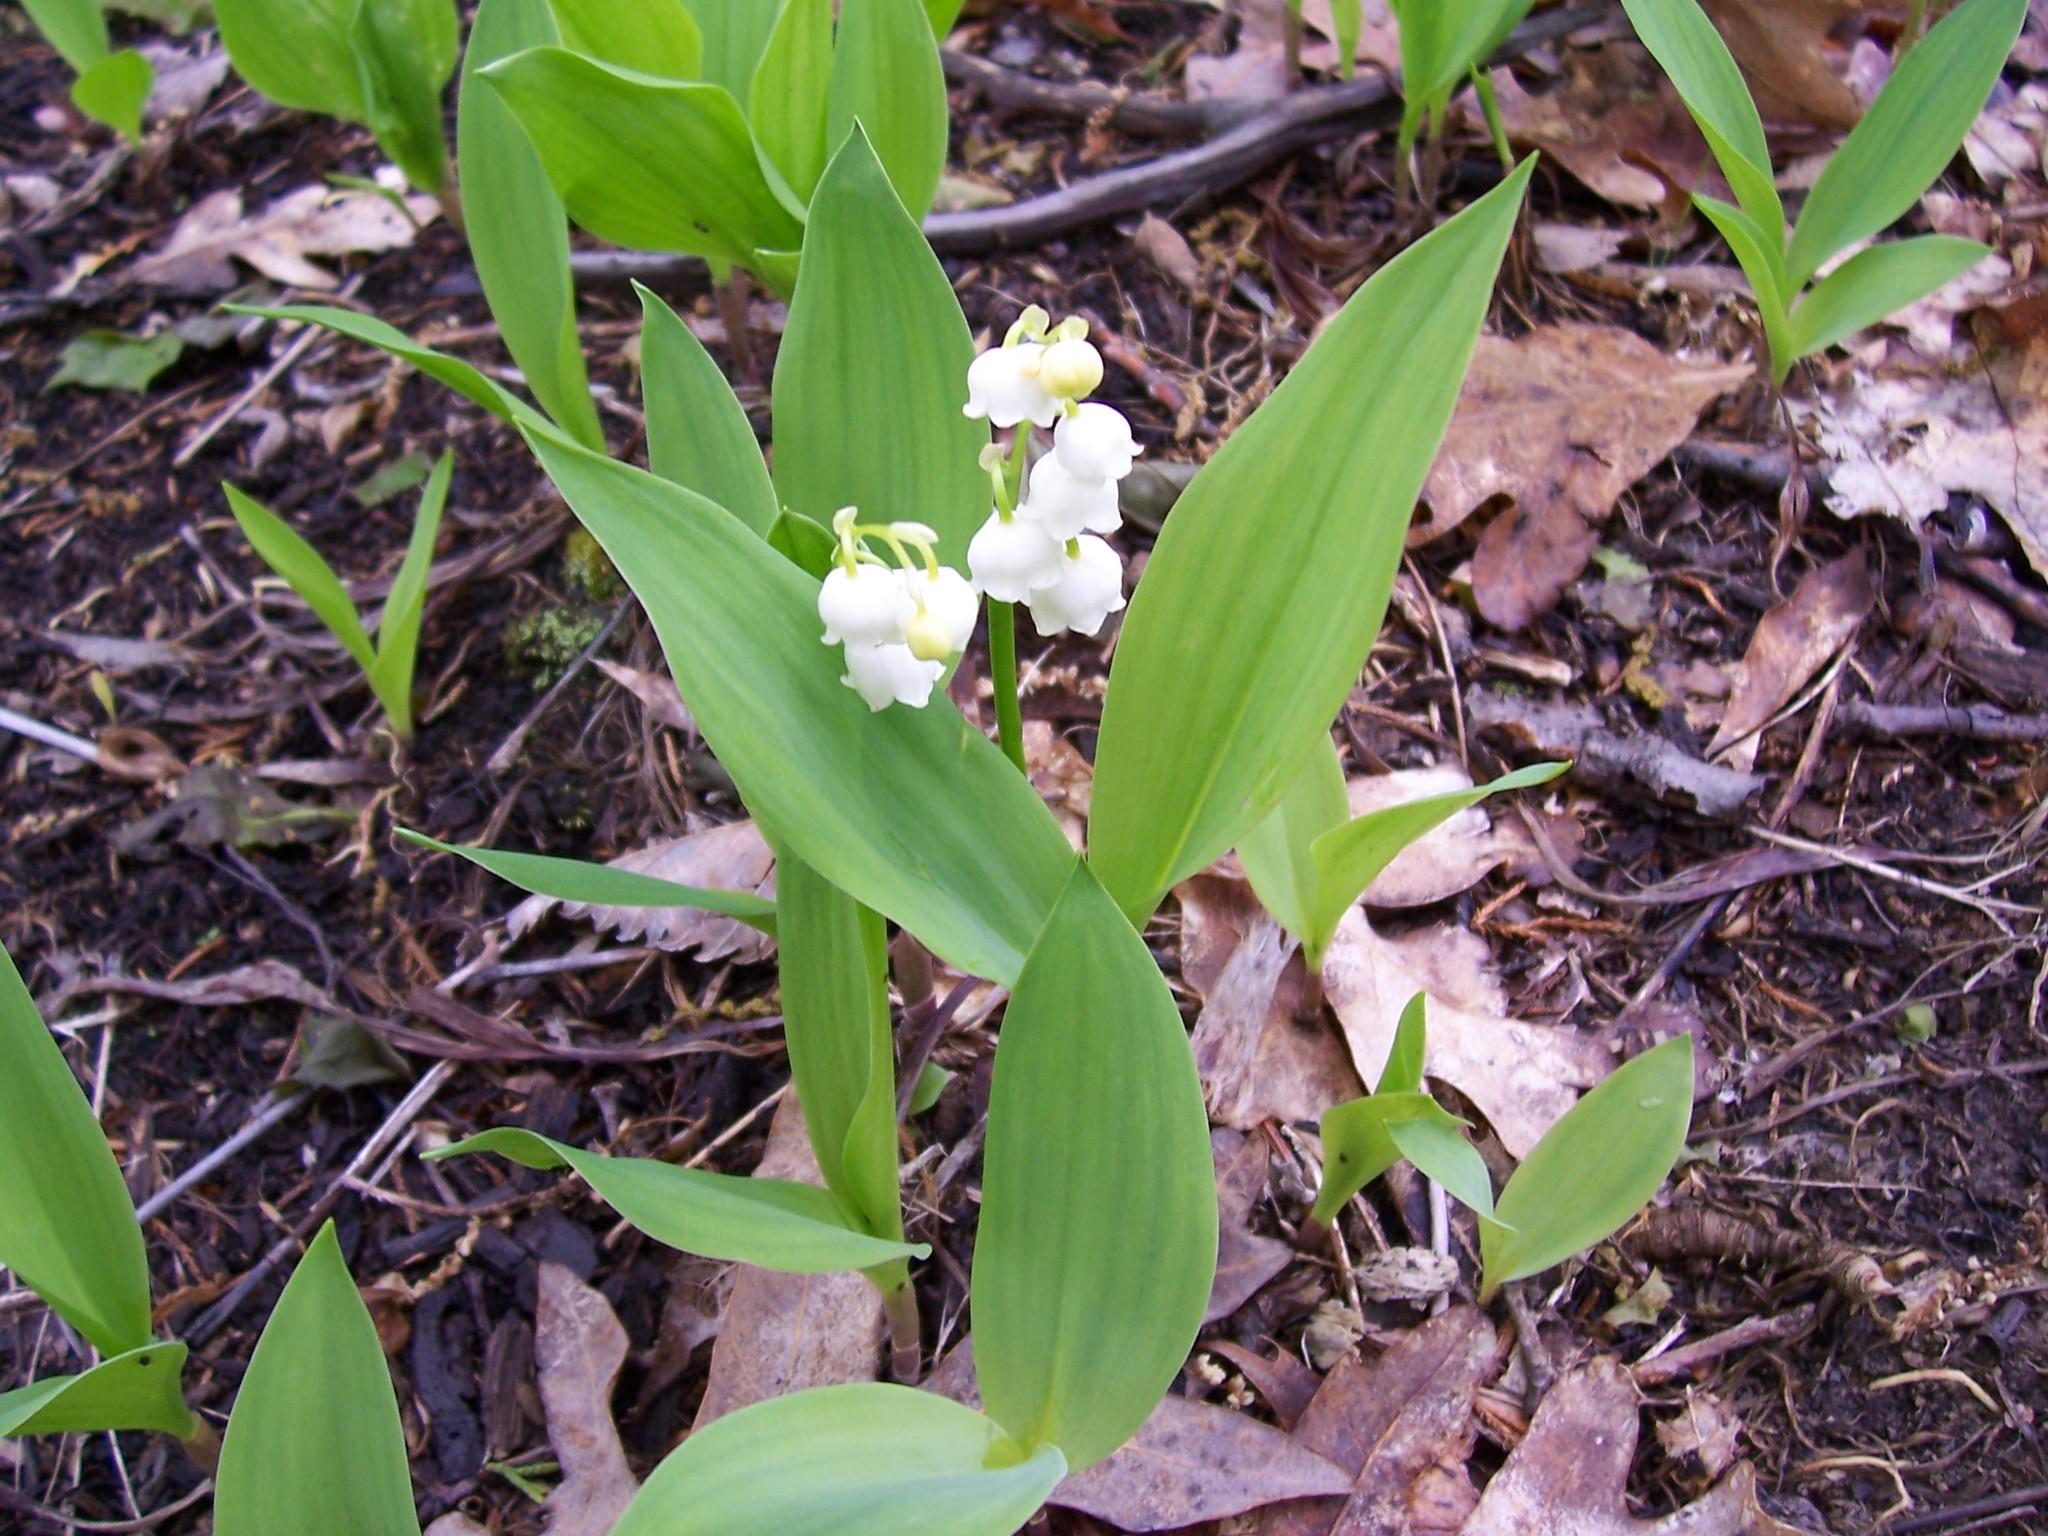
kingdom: Plantae
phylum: Tracheophyta
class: Liliopsida
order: Asparagales
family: Asparagaceae
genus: Convallaria
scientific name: Convallaria majalis
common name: Lily-of-the-valley
